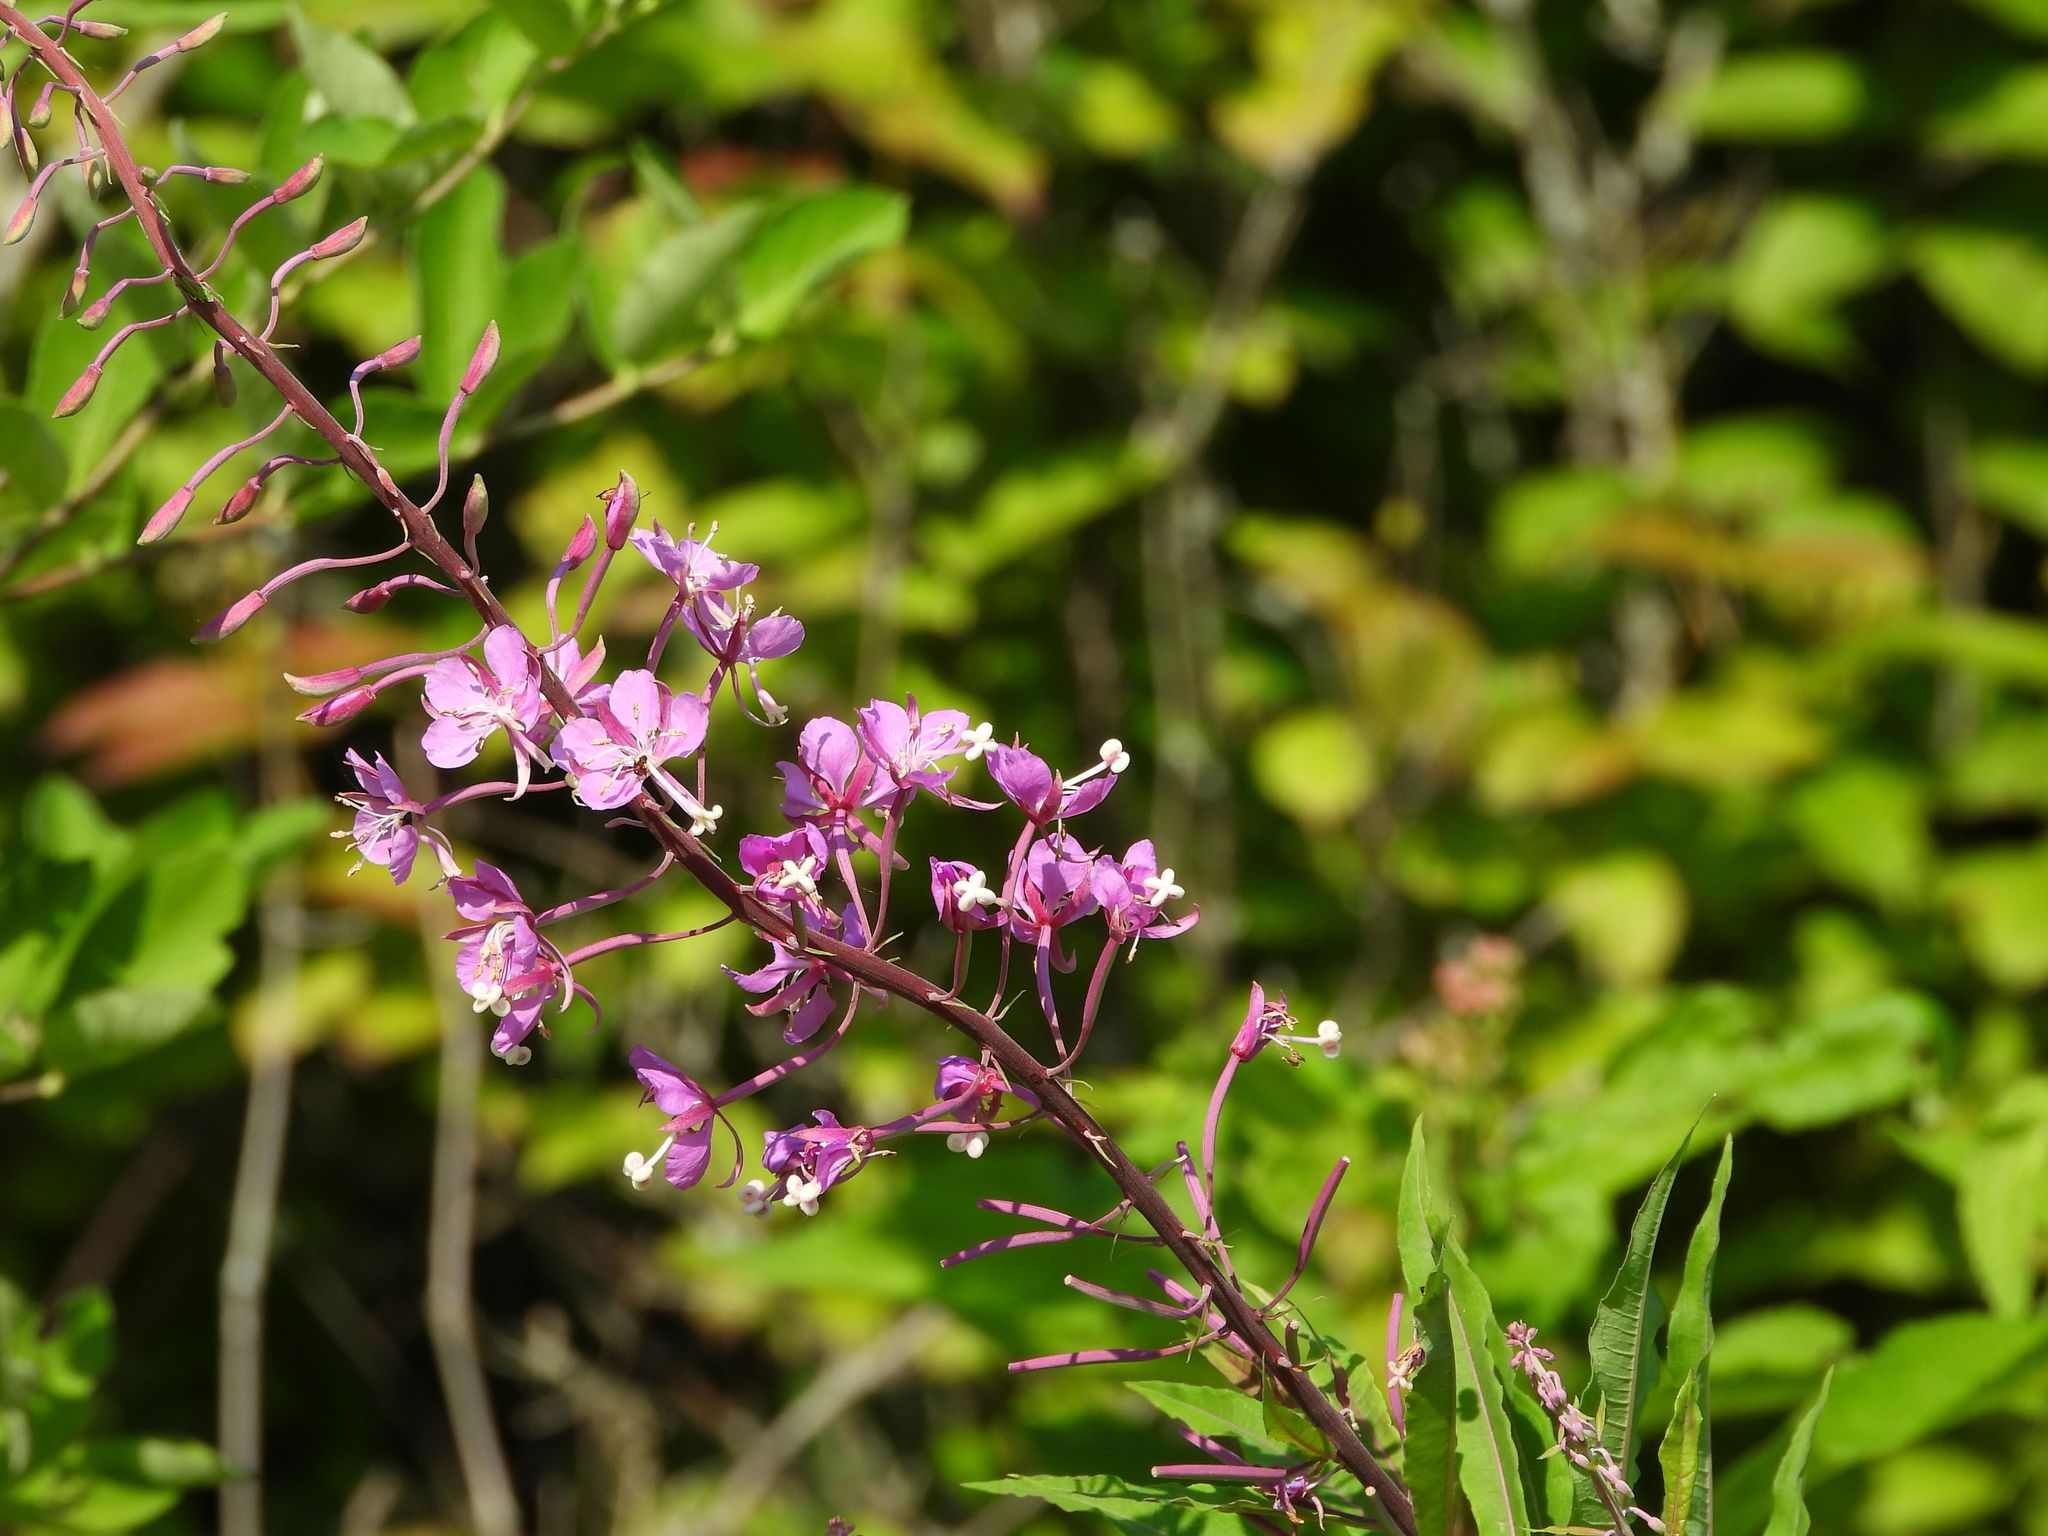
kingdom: Plantae
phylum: Tracheophyta
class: Magnoliopsida
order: Myrtales
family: Onagraceae
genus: Chamaenerion
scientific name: Chamaenerion angustifolium
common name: Fireweed
